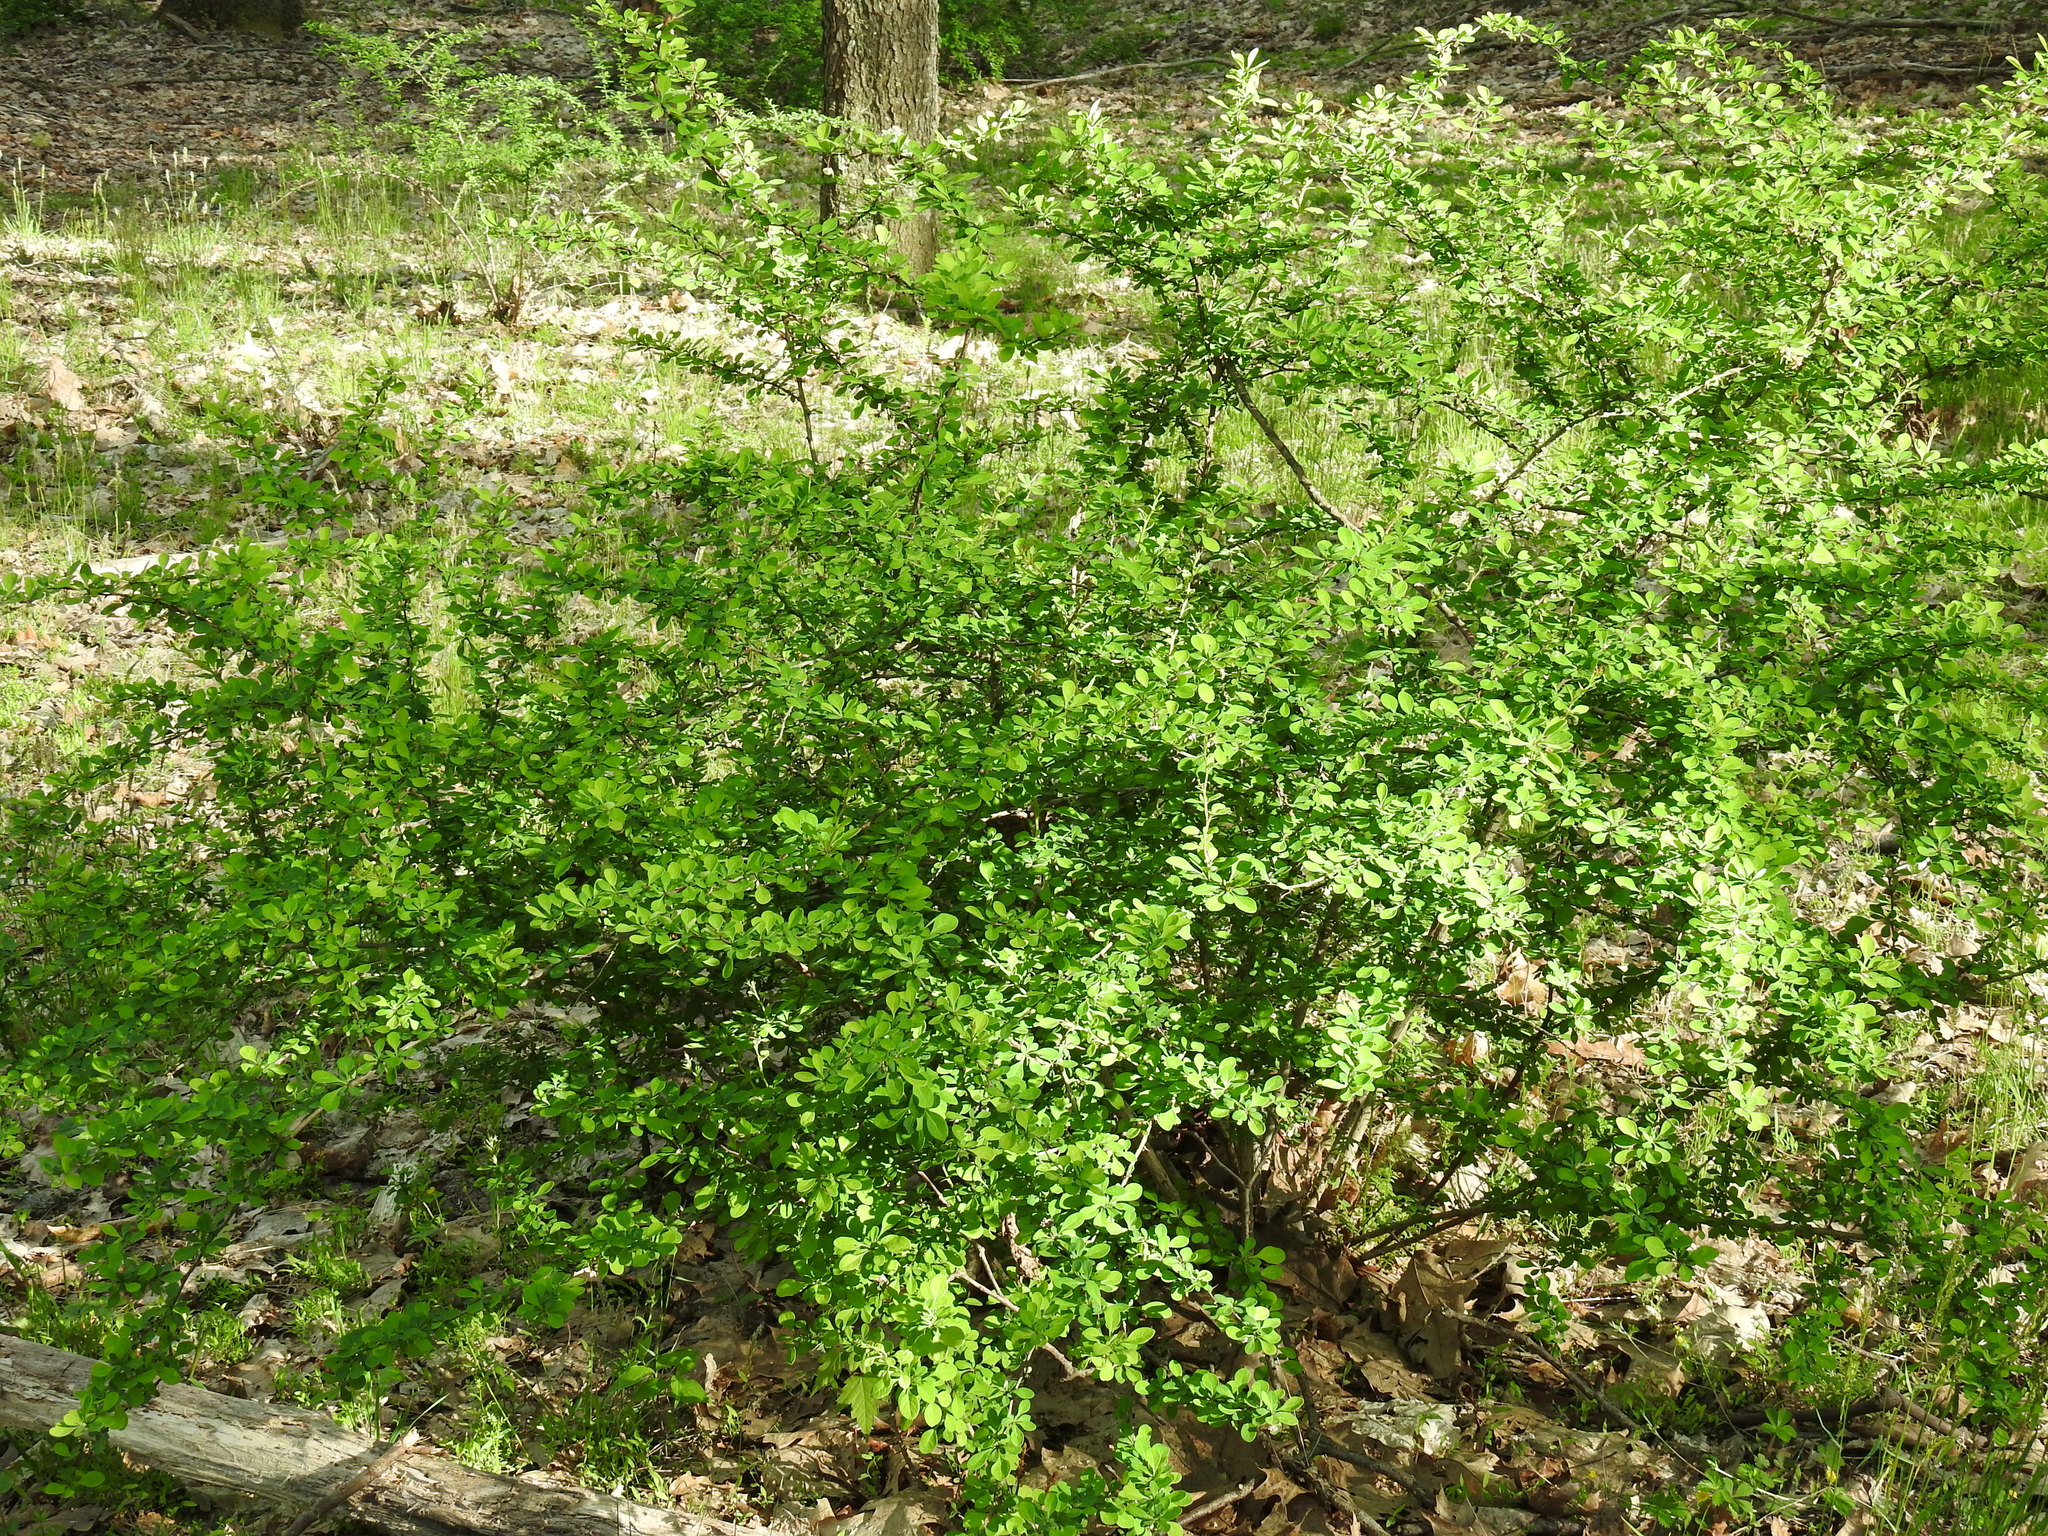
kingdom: Plantae
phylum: Tracheophyta
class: Magnoliopsida
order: Ranunculales
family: Berberidaceae
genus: Berberis
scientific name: Berberis thunbergii
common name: Japanese barberry
